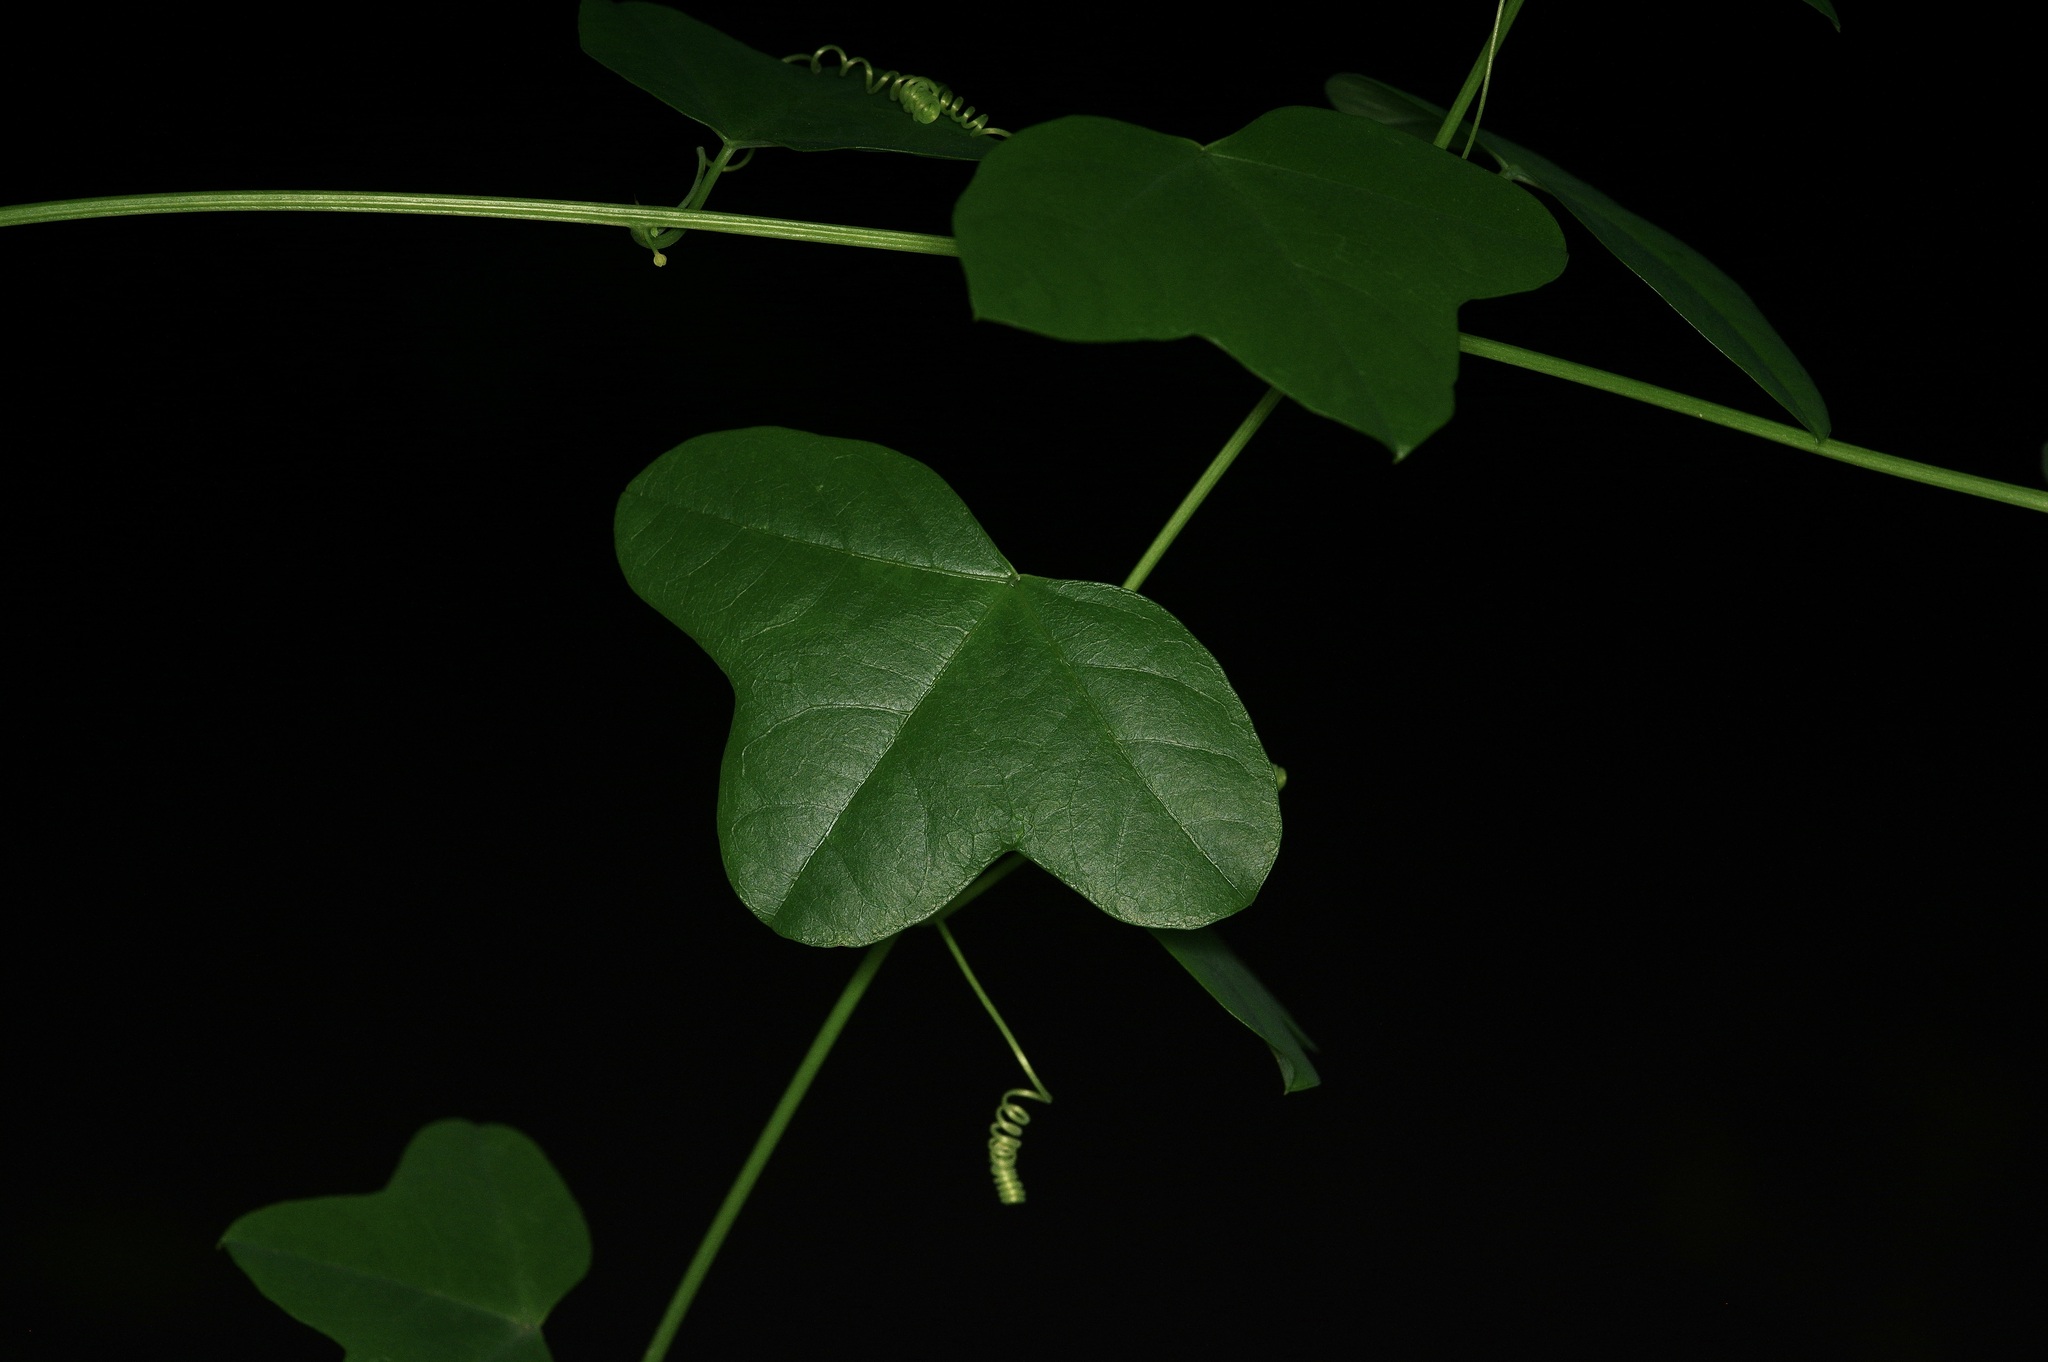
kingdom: Plantae
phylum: Tracheophyta
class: Magnoliopsida
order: Malpighiales
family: Passifloraceae
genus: Passiflora
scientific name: Passiflora lutea
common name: Yellow passionflower
